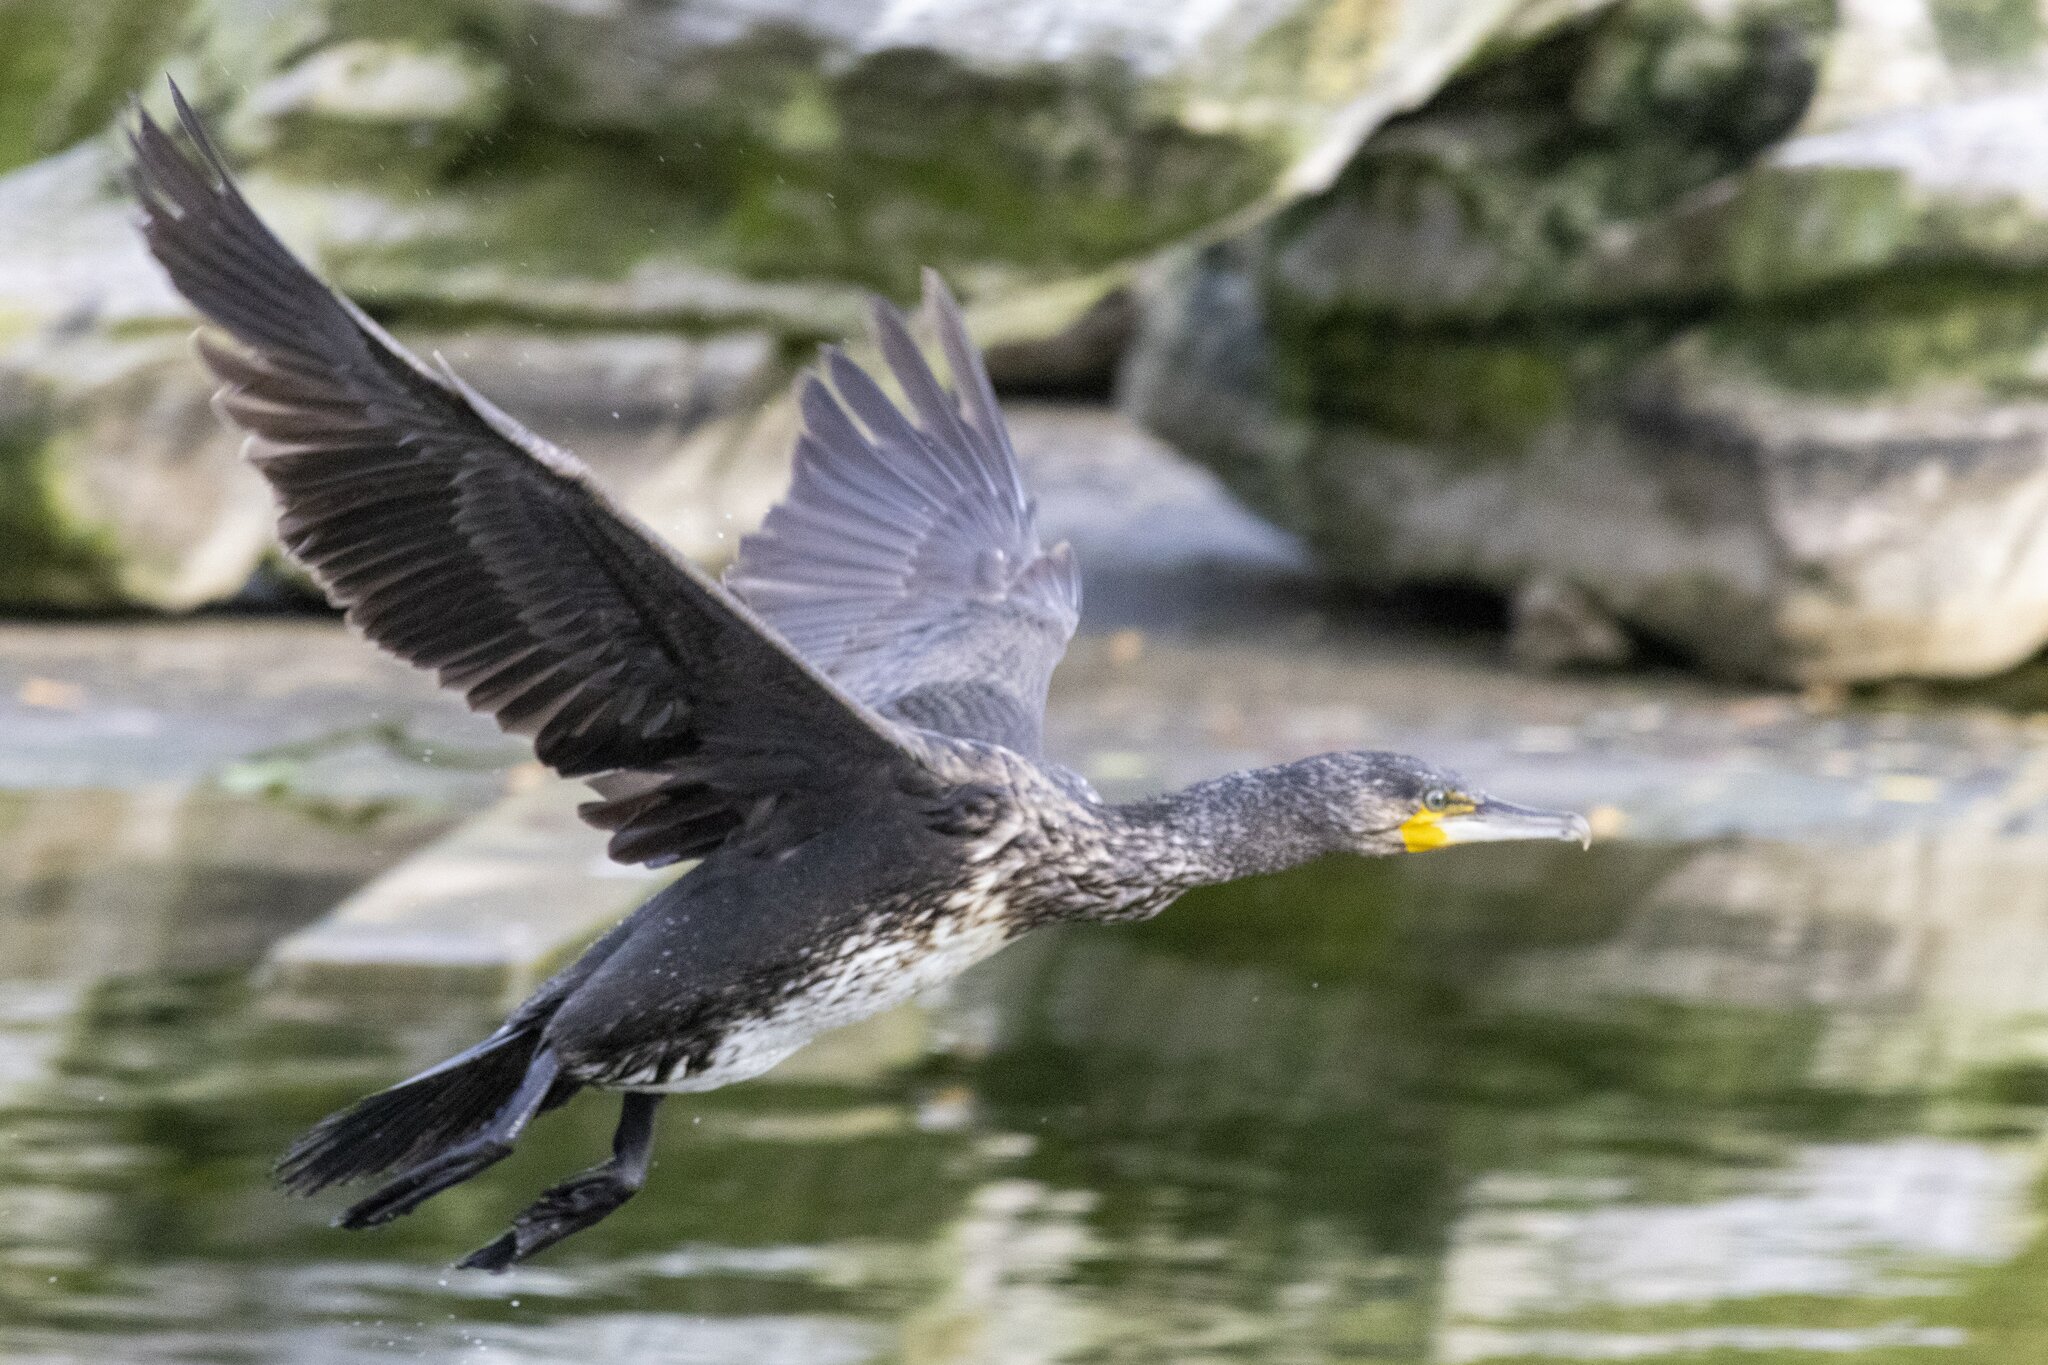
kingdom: Animalia
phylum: Chordata
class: Aves
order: Suliformes
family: Phalacrocoracidae
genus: Phalacrocorax
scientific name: Phalacrocorax carbo
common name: Great cormorant
